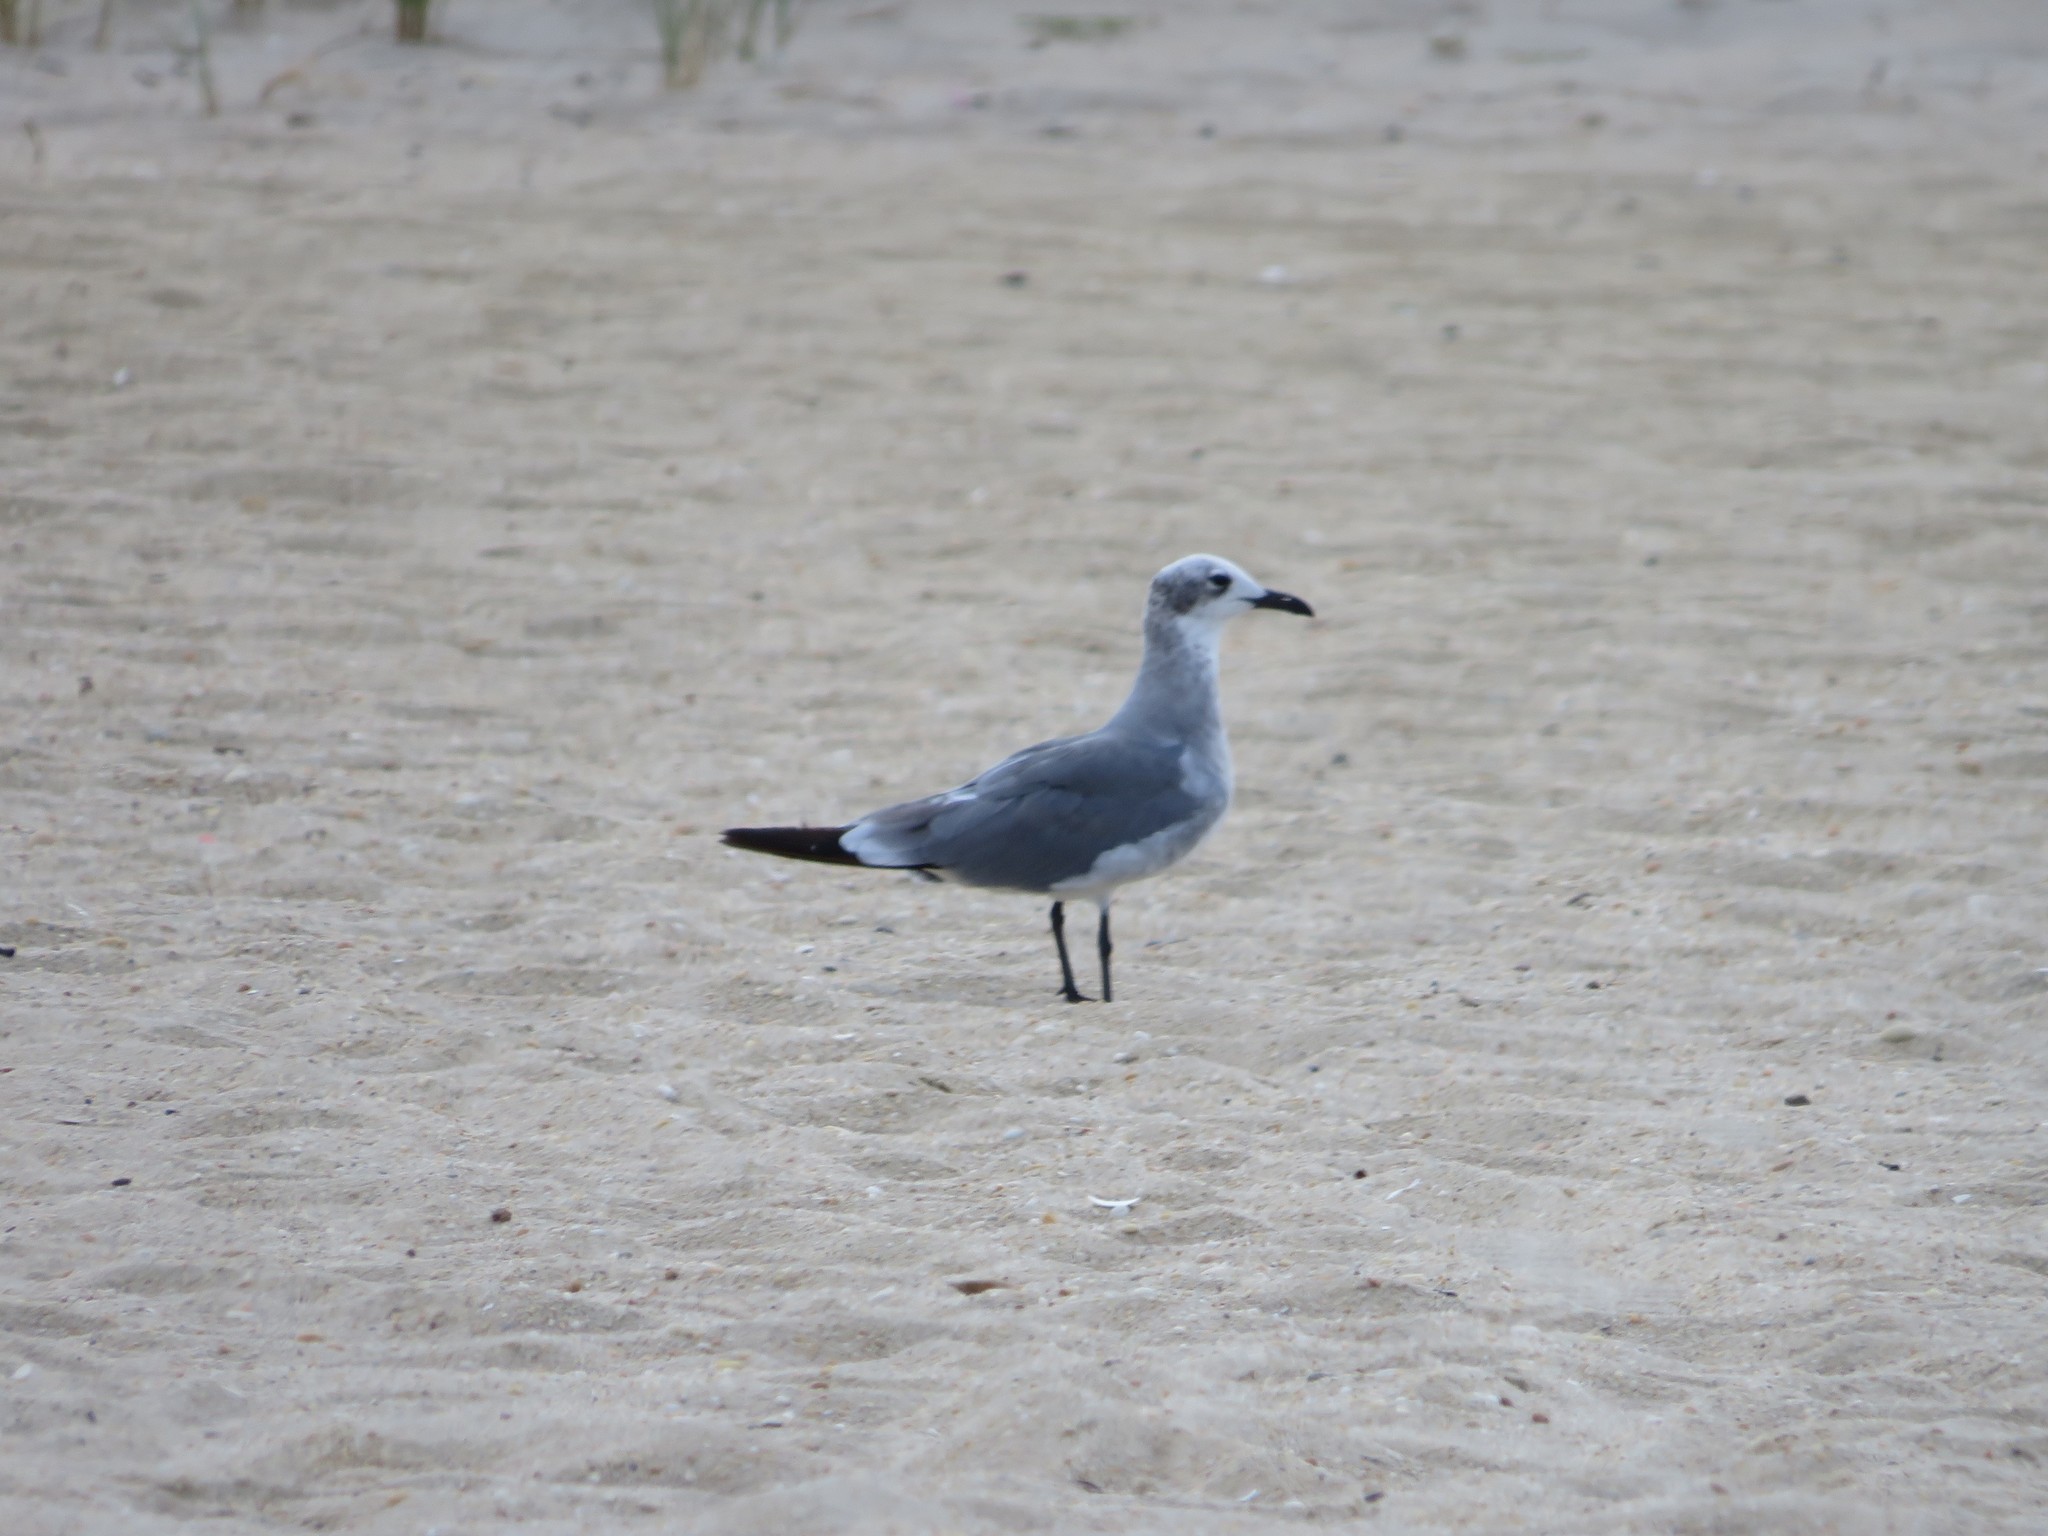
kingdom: Animalia
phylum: Chordata
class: Aves
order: Charadriiformes
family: Laridae
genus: Leucophaeus
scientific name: Leucophaeus atricilla
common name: Laughing gull
